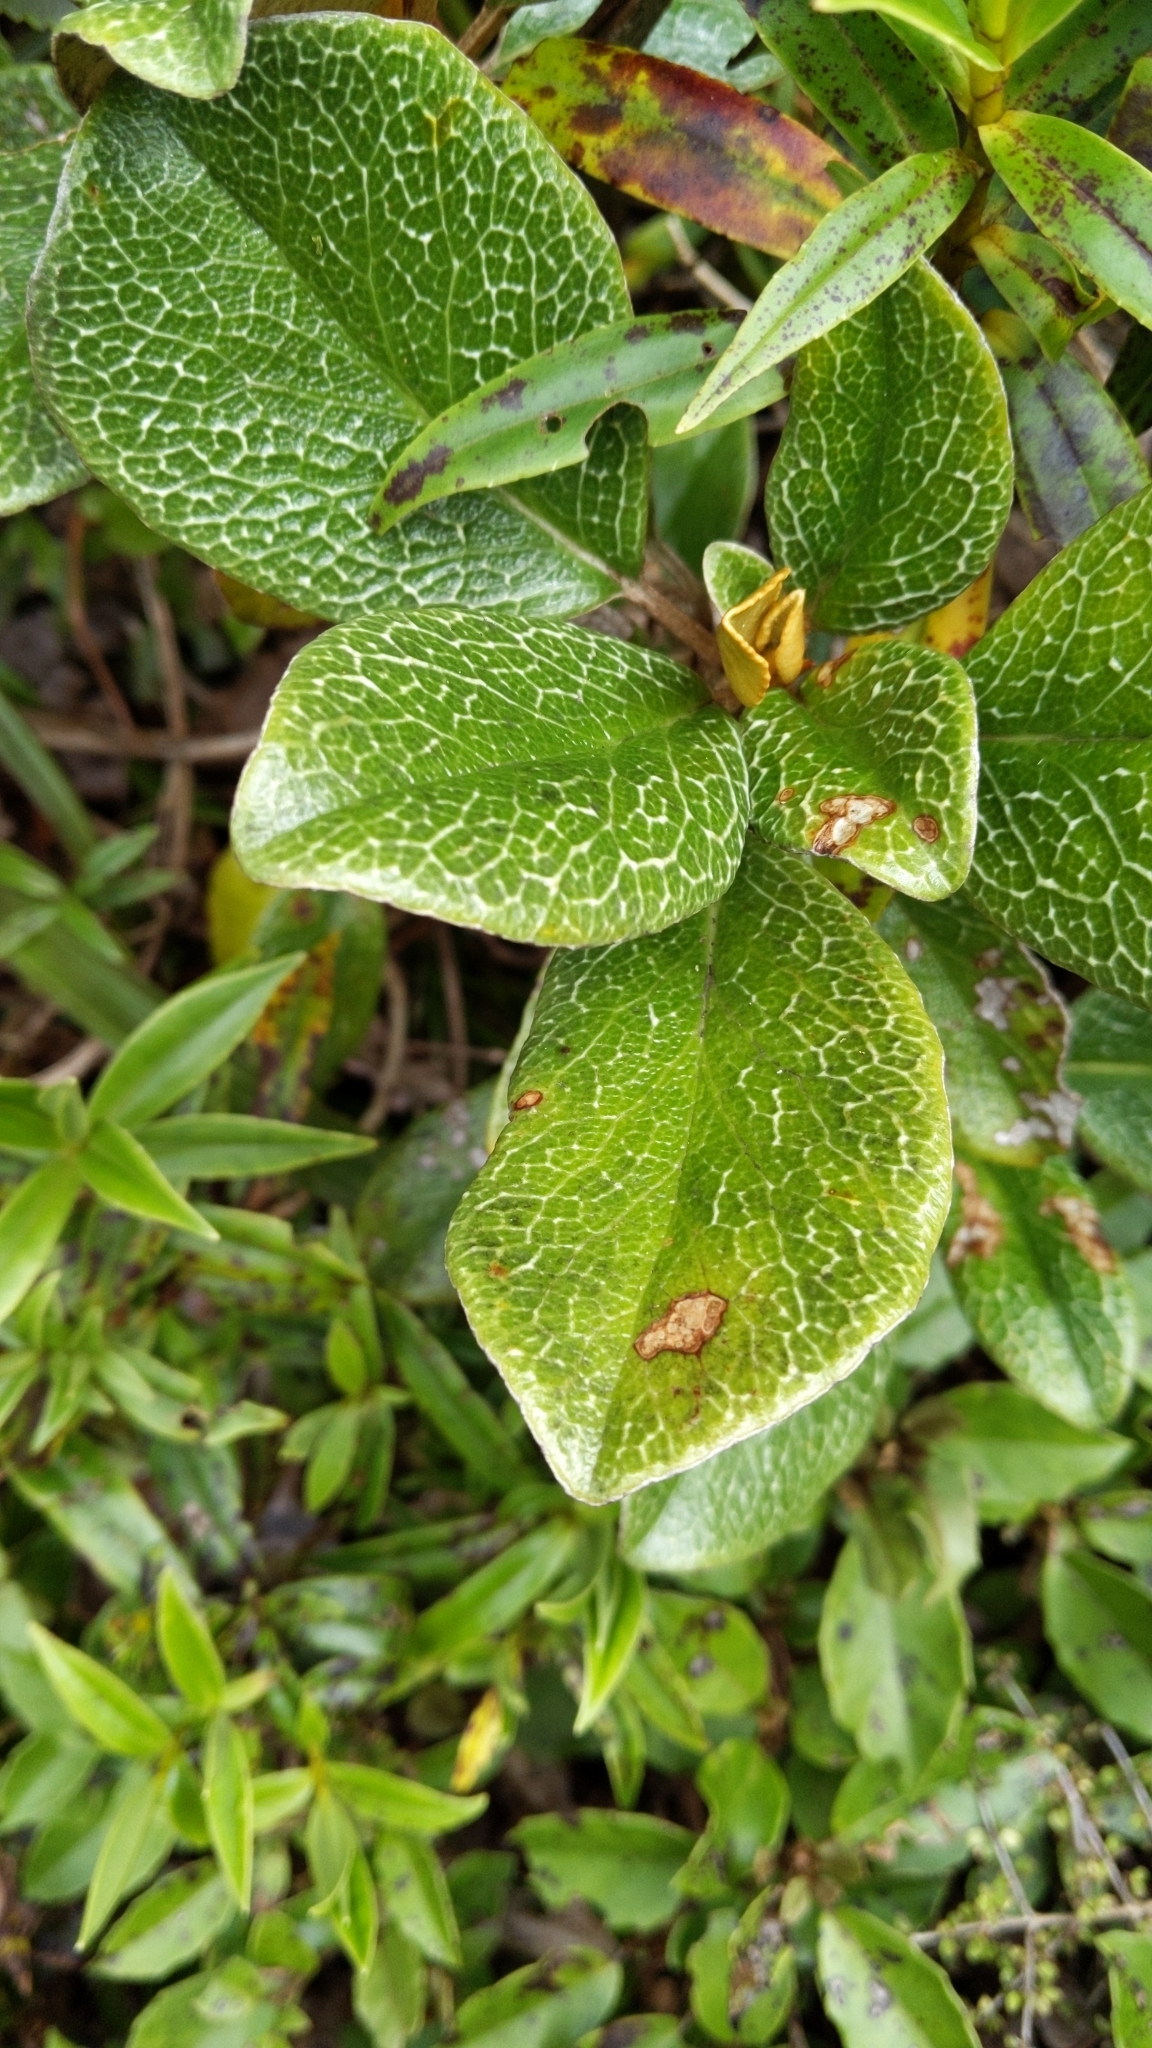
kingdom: Plantae
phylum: Tracheophyta
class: Magnoliopsida
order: Asterales
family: Asteraceae
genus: Brachyglottis
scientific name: Brachyglottis elaeagnifolia
